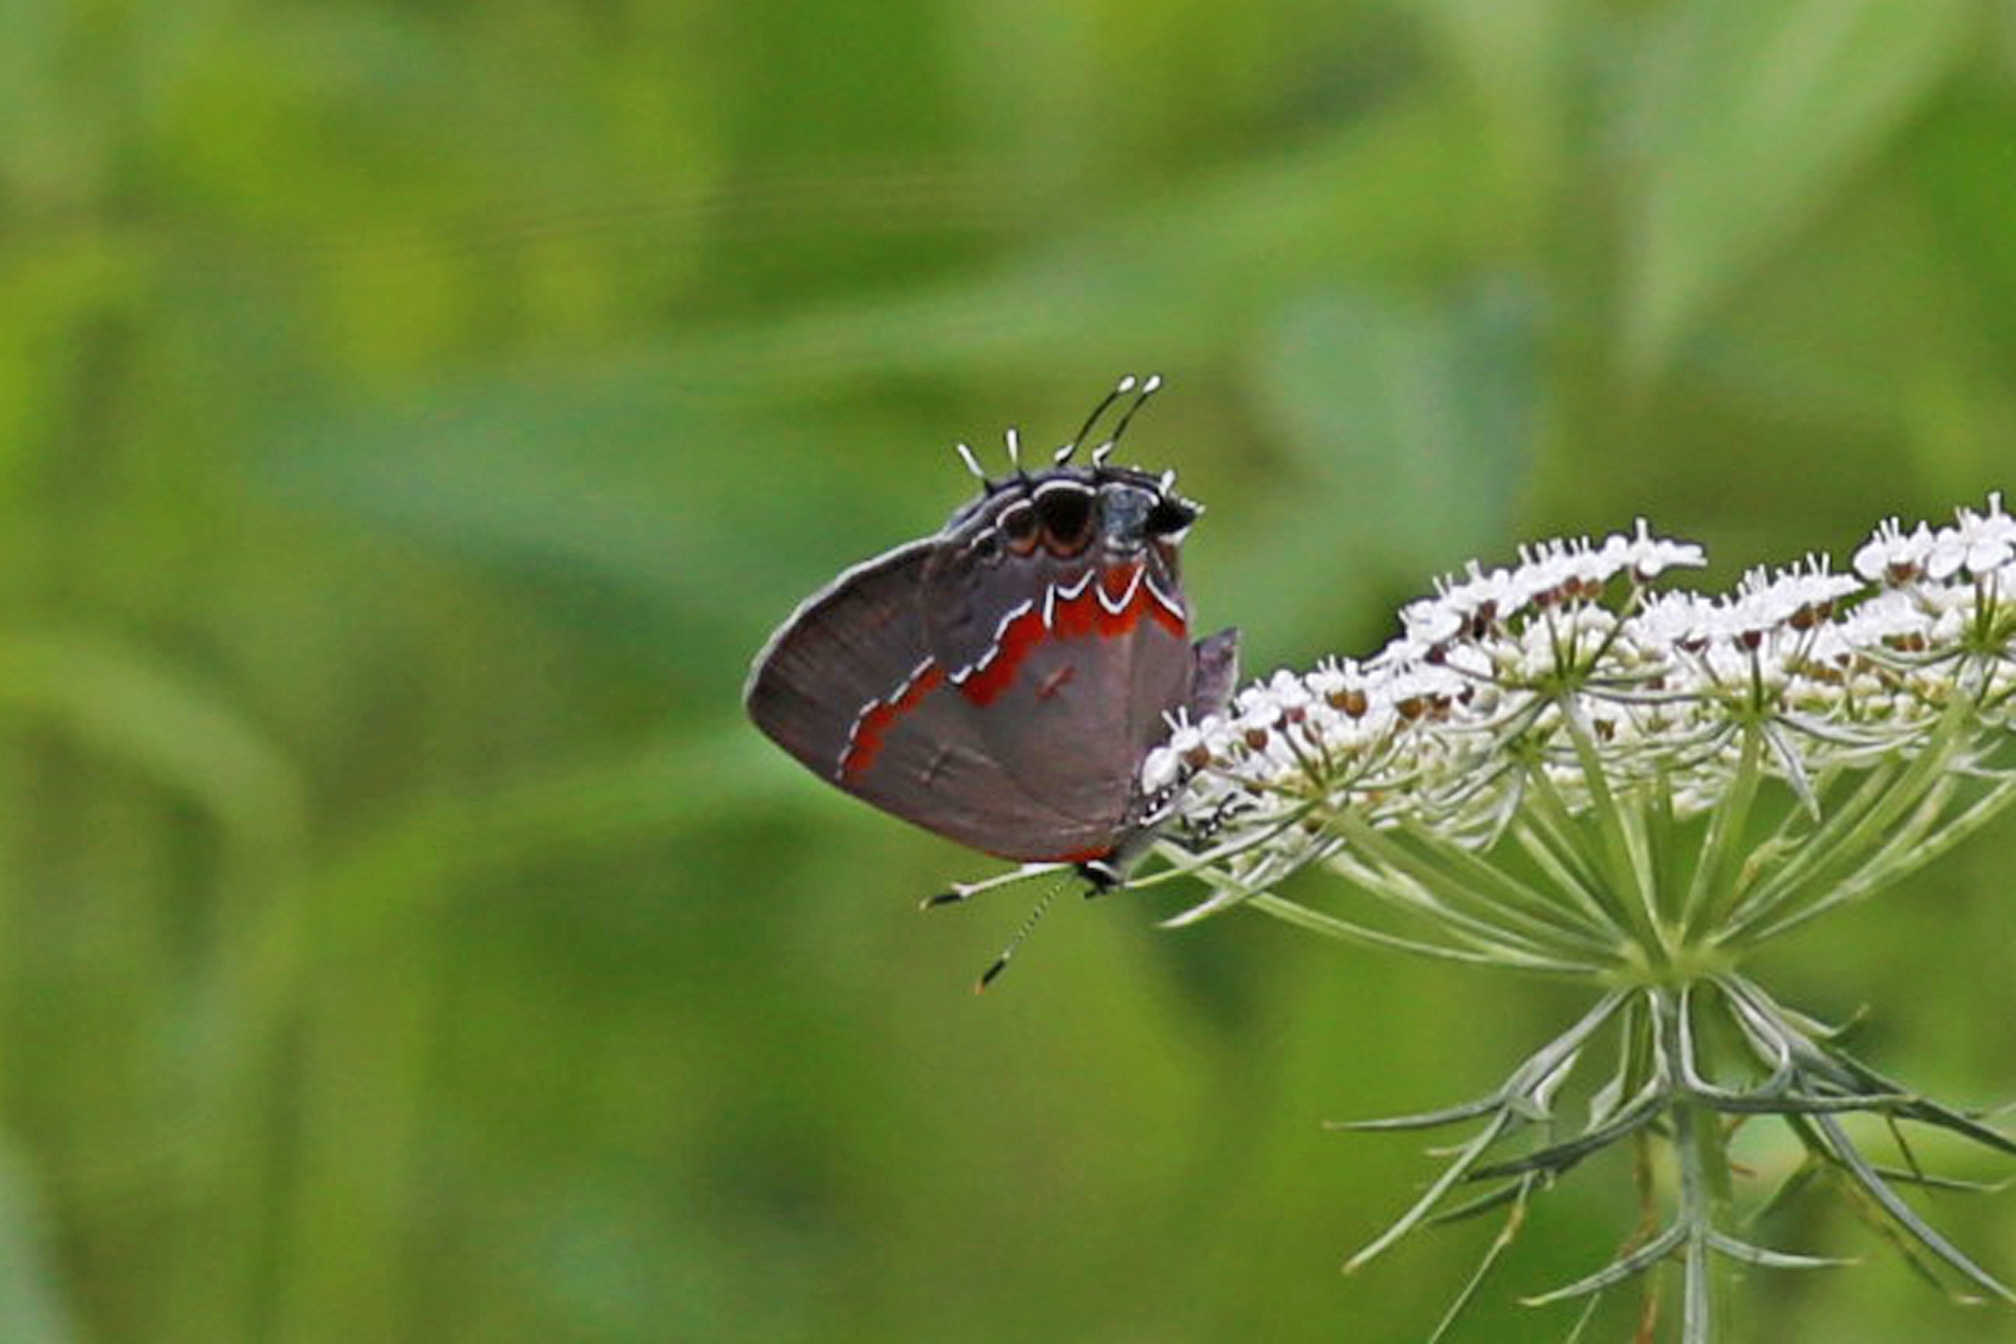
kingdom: Animalia
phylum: Arthropoda
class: Insecta
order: Lepidoptera
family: Lycaenidae
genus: Calycopis
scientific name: Calycopis cecrops
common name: Red-banded hairstreak
